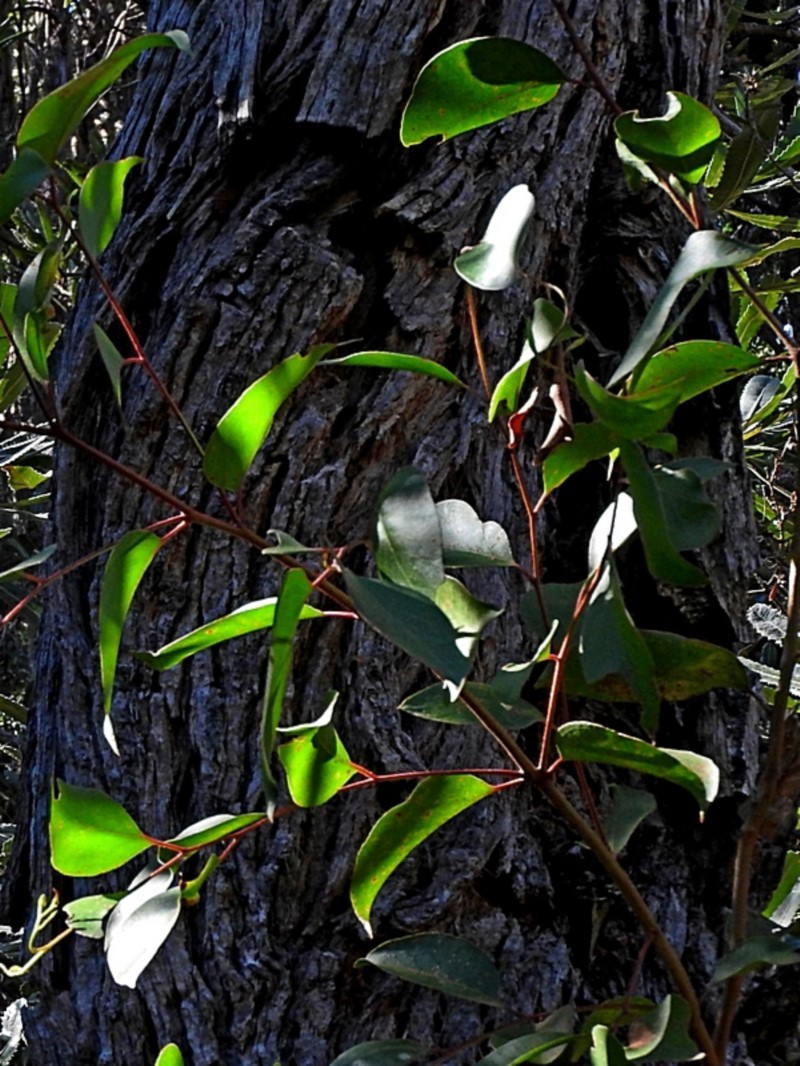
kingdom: Plantae
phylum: Tracheophyta
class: Magnoliopsida
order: Myrtales
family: Myrtaceae
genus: Eucalyptus
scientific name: Eucalyptus baxteri
